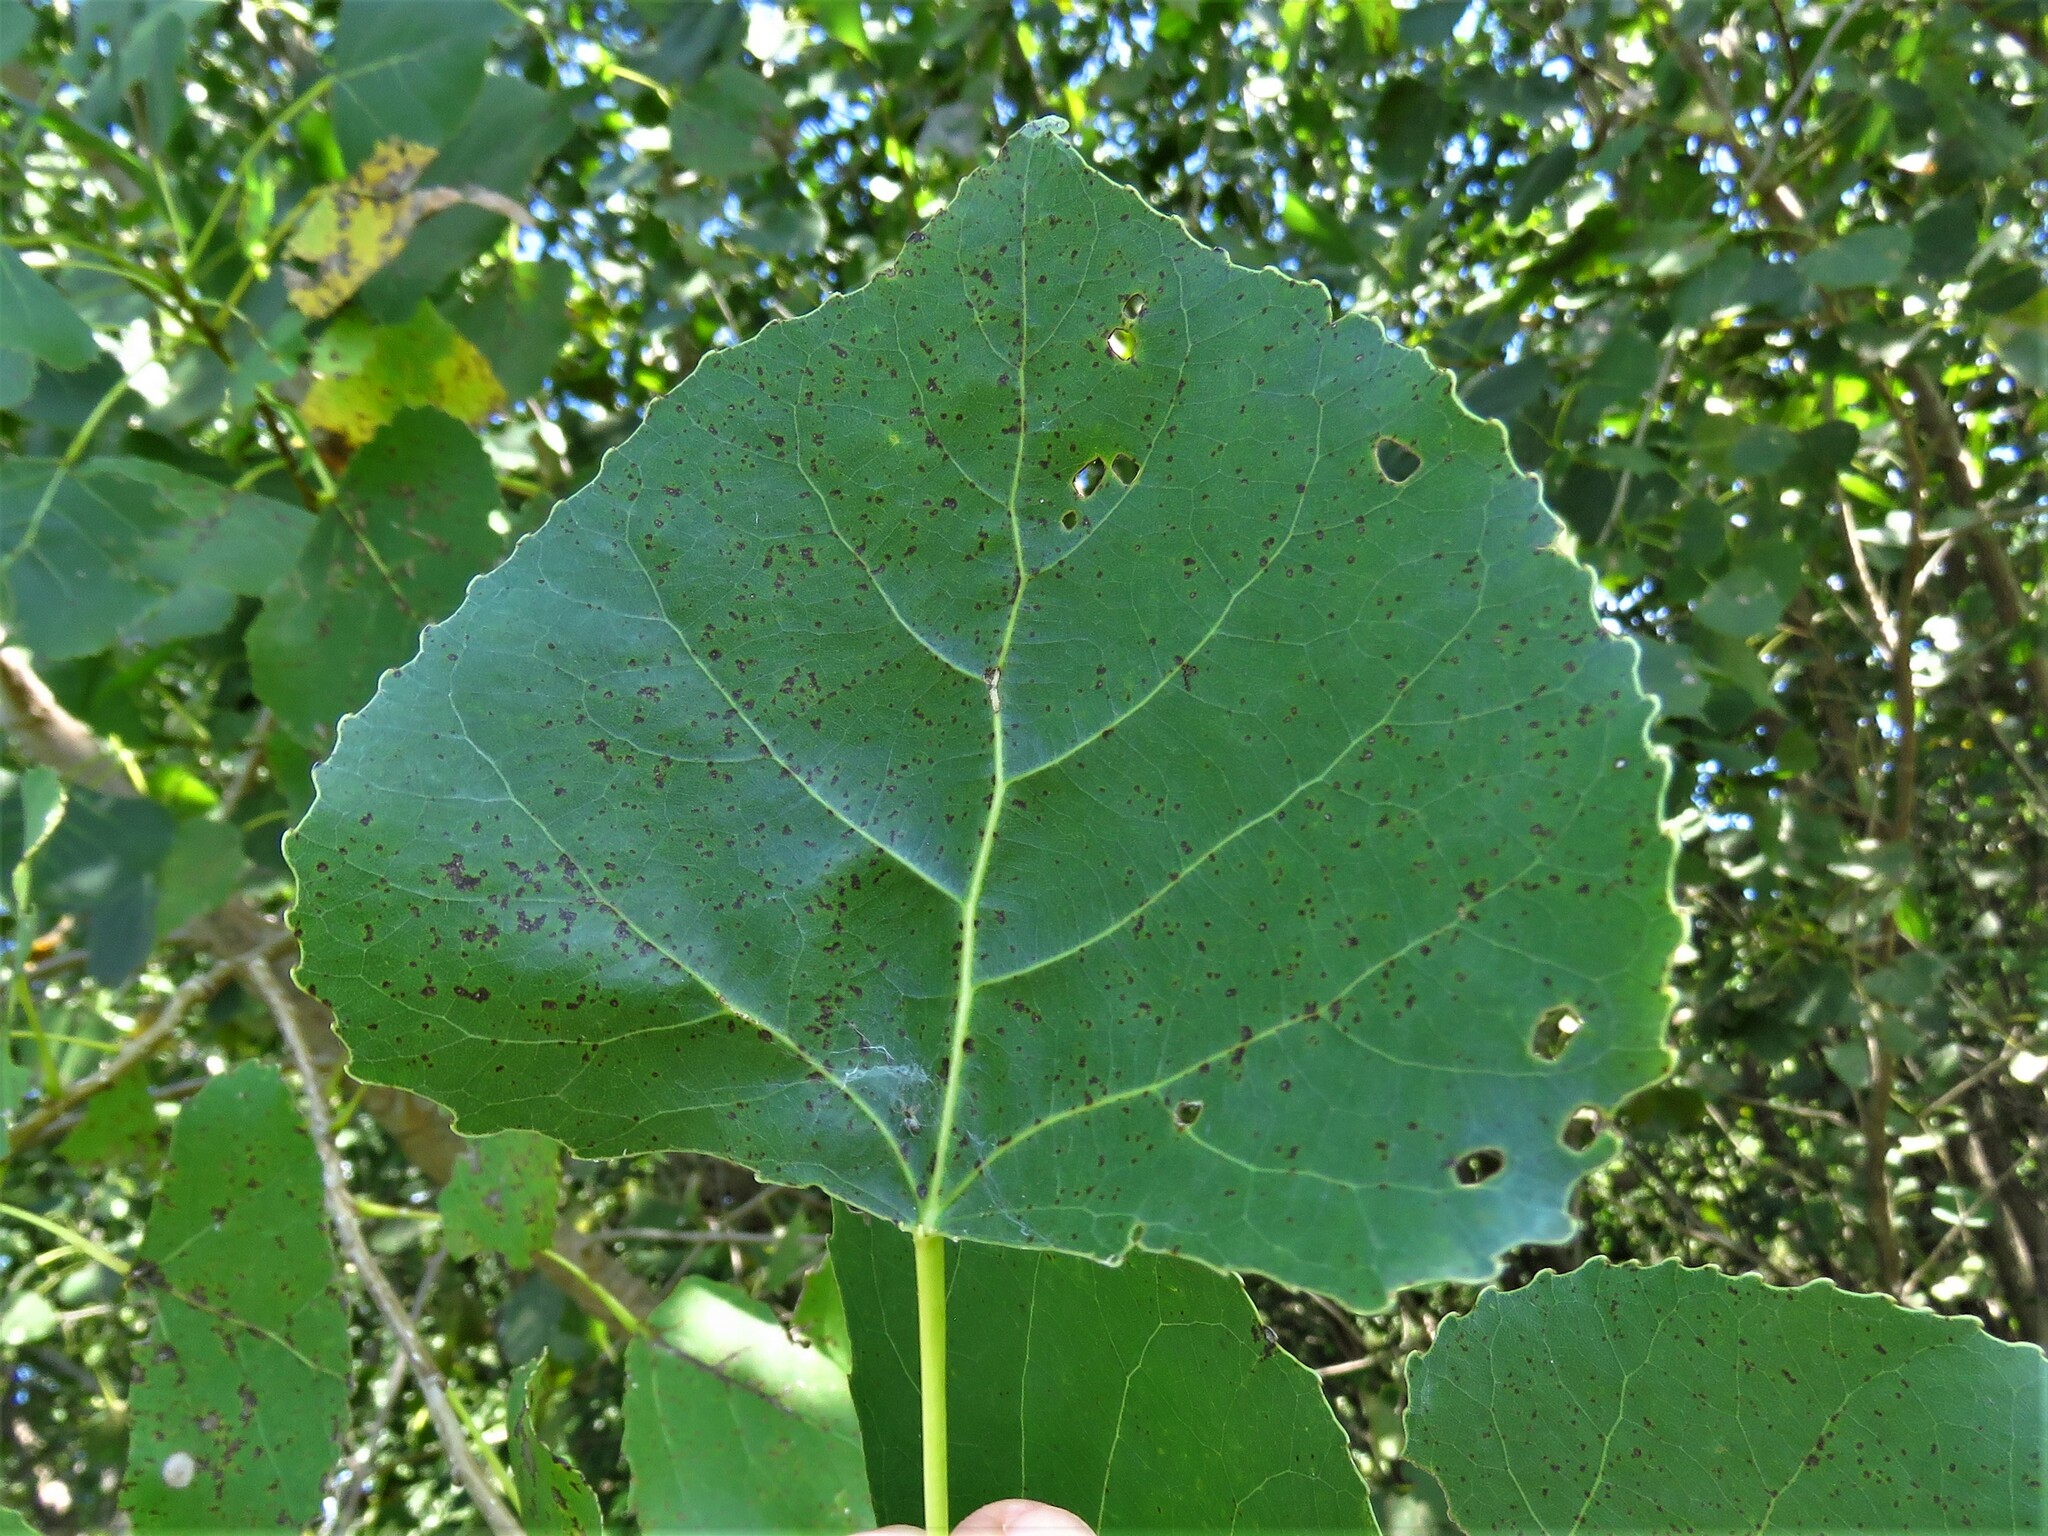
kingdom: Plantae
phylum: Tracheophyta
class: Magnoliopsida
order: Malpighiales
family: Salicaceae
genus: Populus
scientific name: Populus deltoides
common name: Eastern cottonwood
